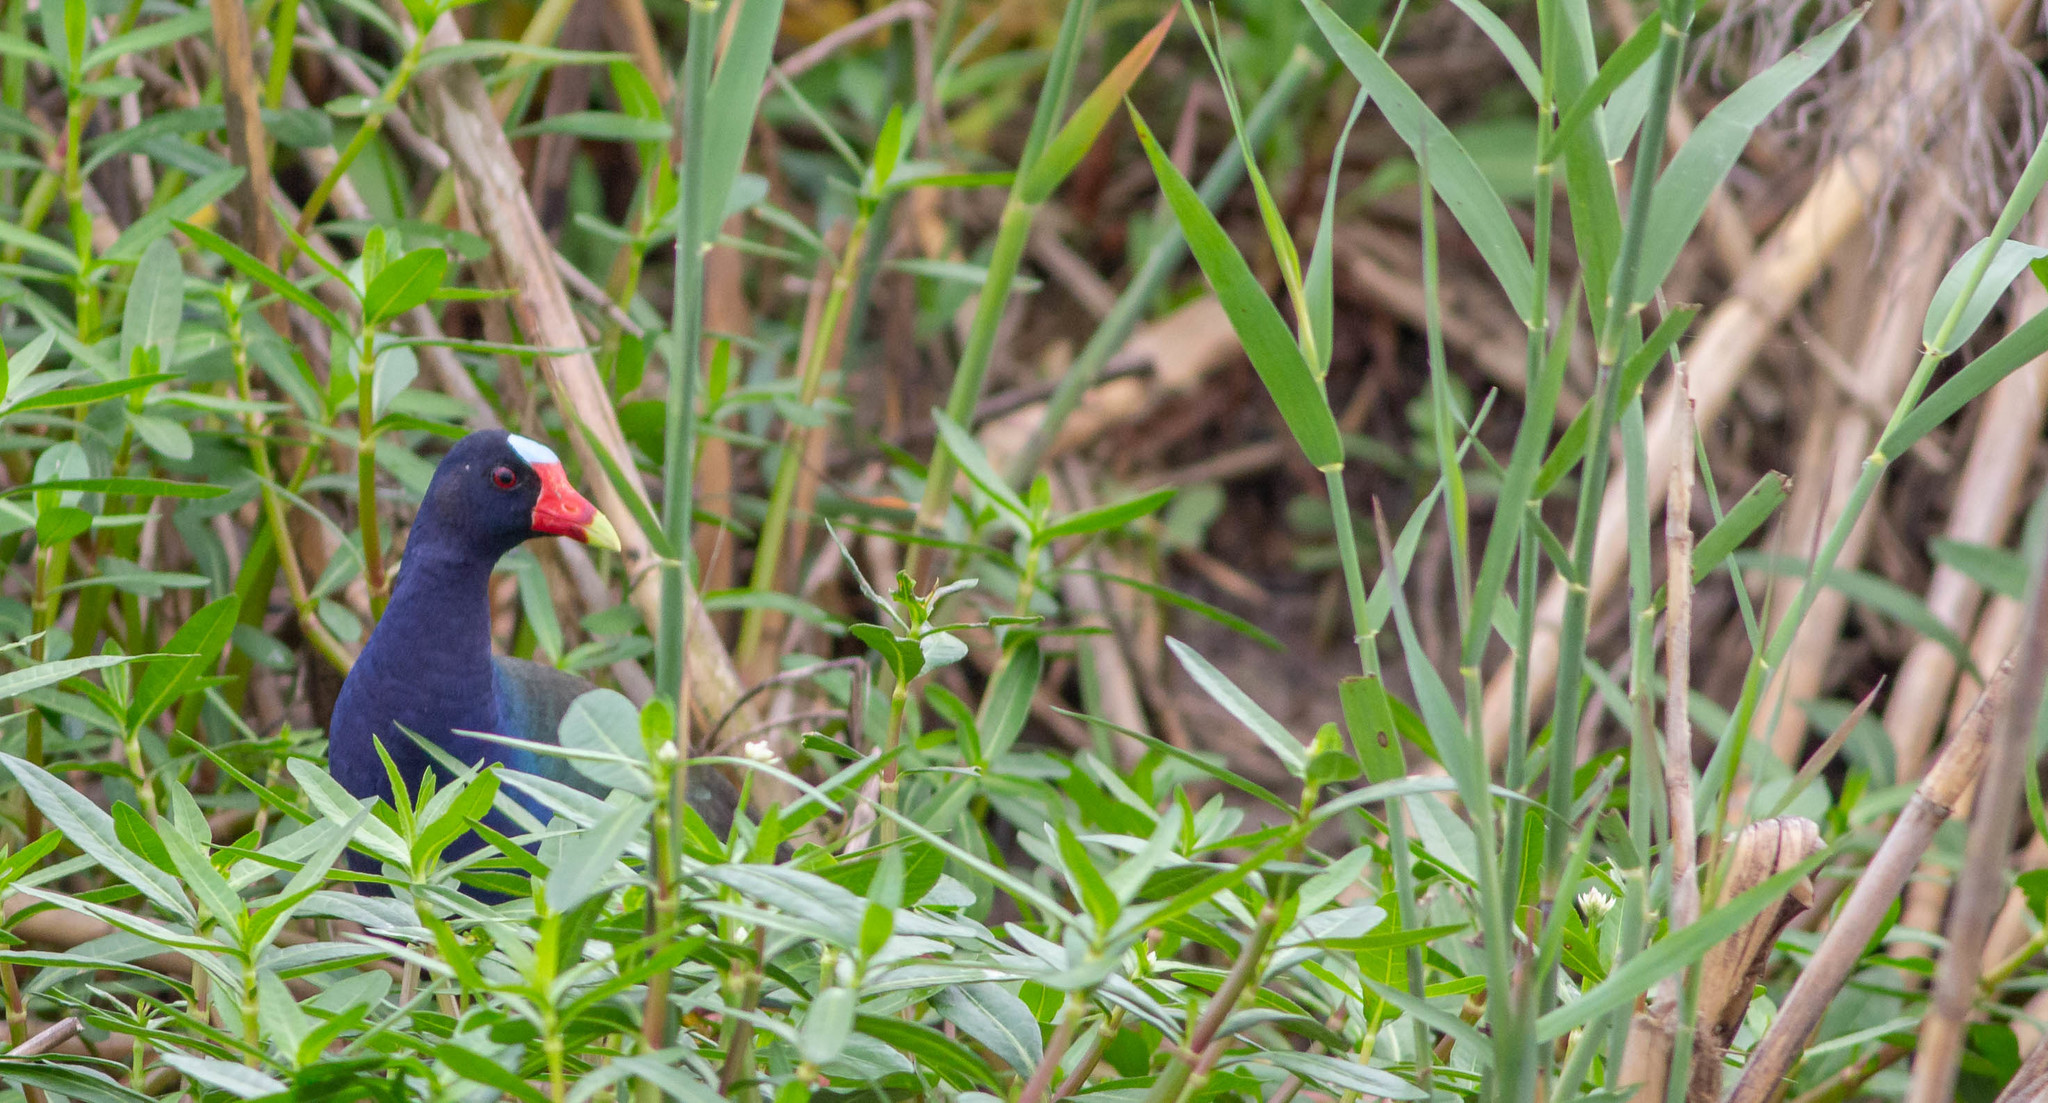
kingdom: Animalia
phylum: Chordata
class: Aves
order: Gruiformes
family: Rallidae
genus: Porphyrio
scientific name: Porphyrio martinica
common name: Purple gallinule
